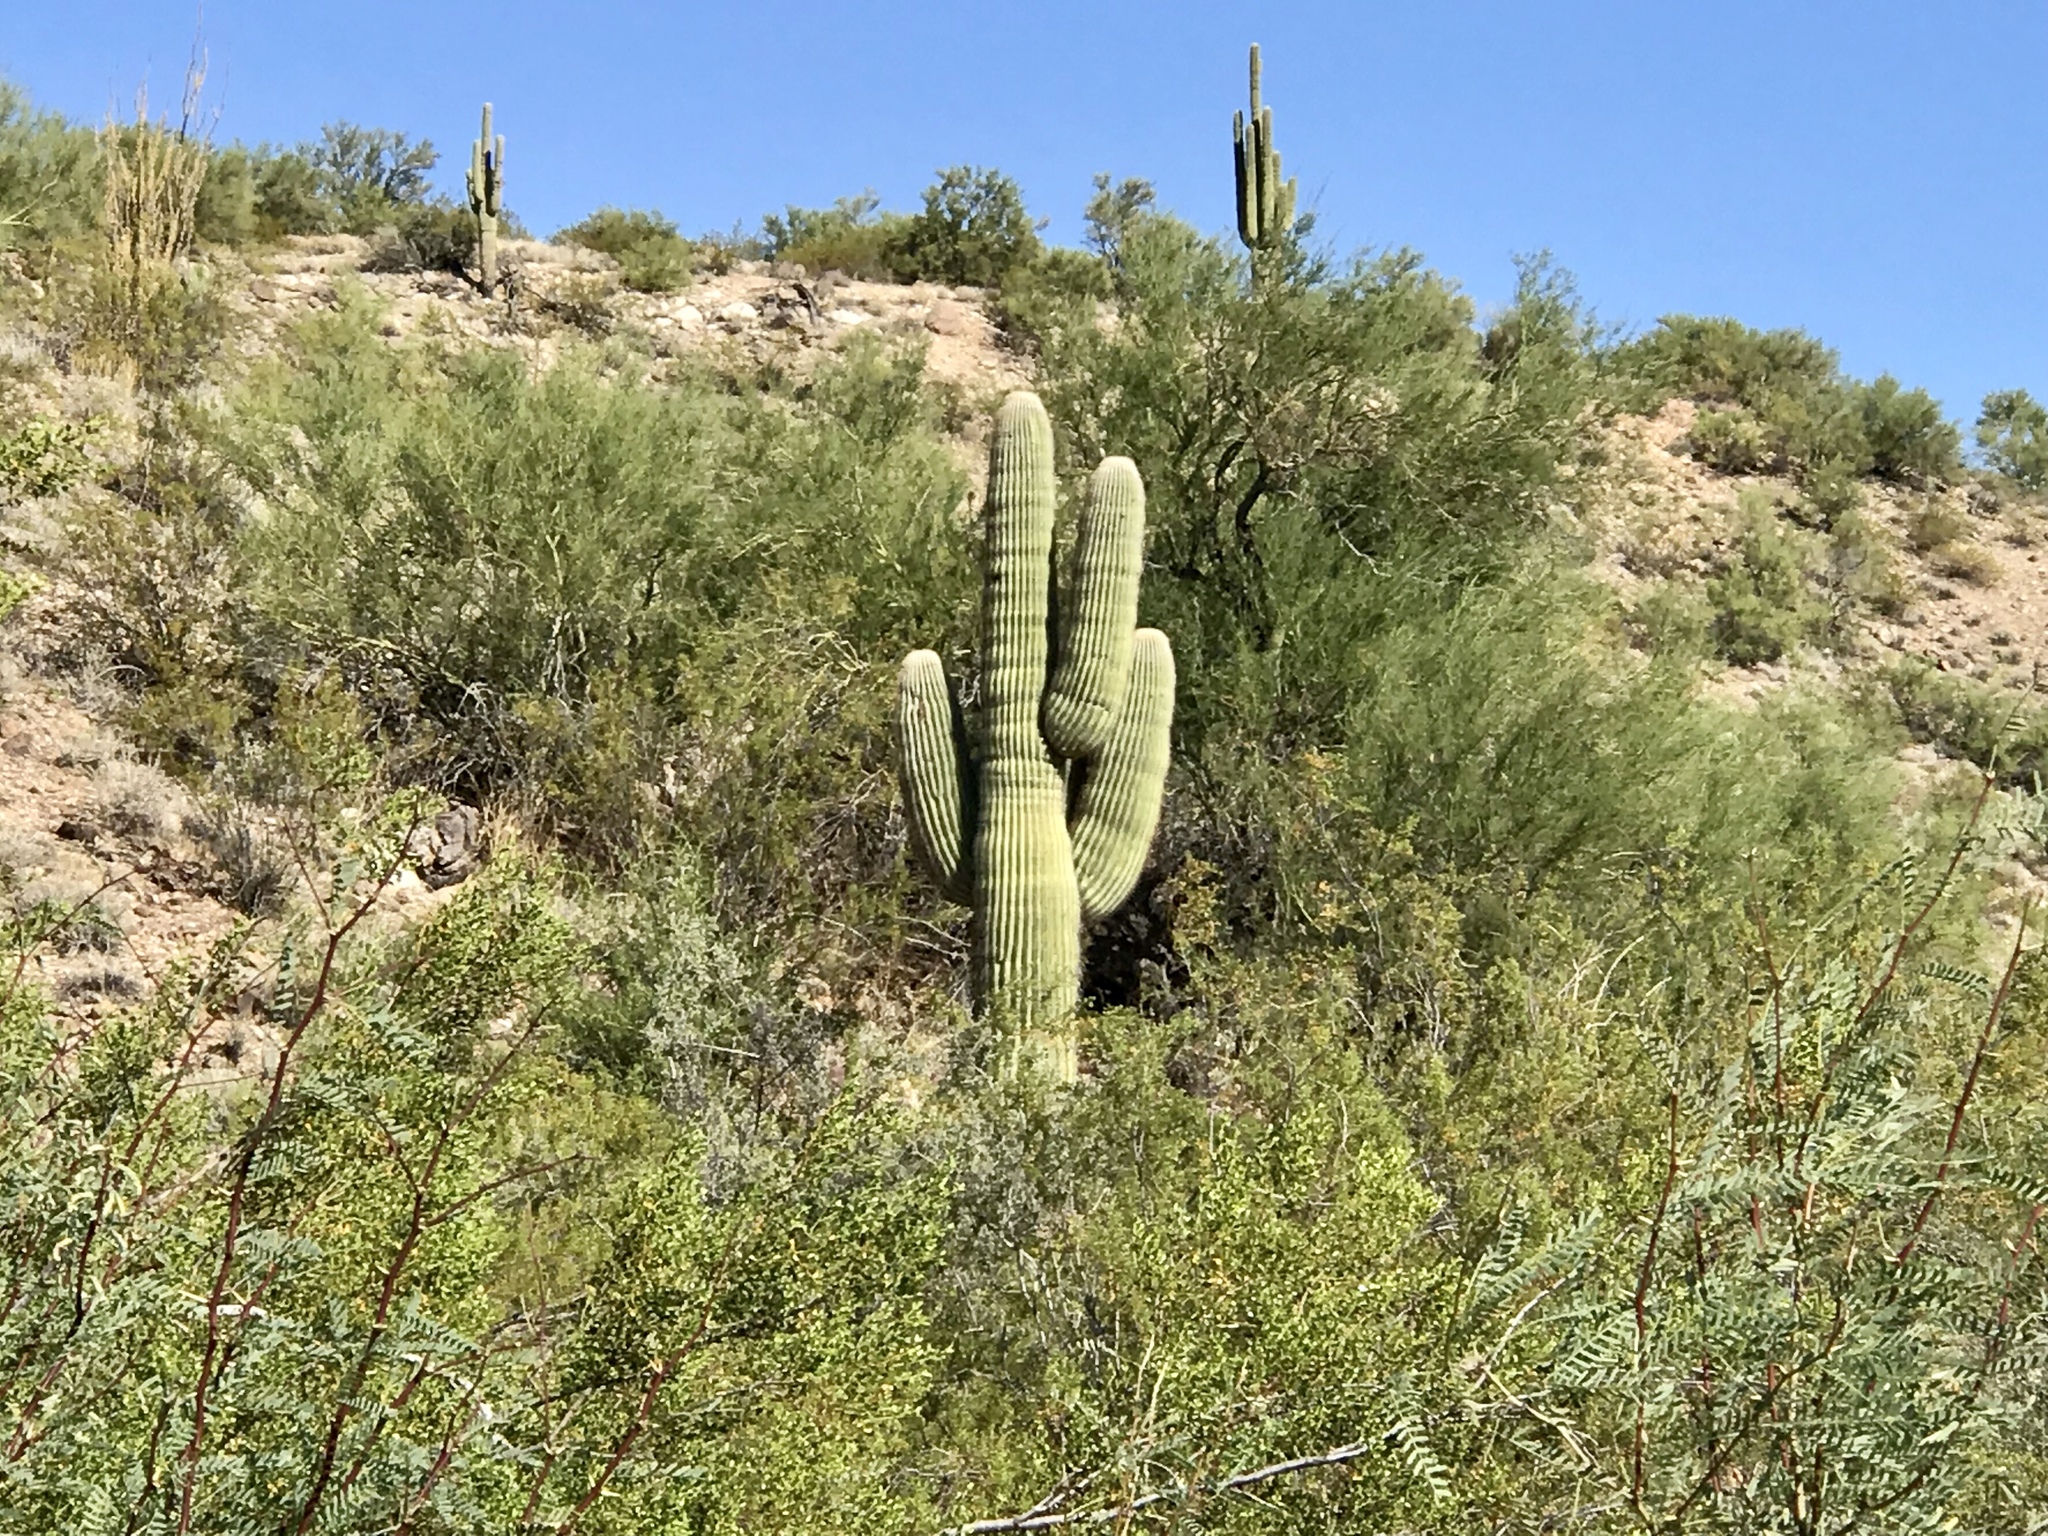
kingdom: Plantae
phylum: Tracheophyta
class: Magnoliopsida
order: Caryophyllales
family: Cactaceae
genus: Carnegiea
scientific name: Carnegiea gigantea
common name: Saguaro
